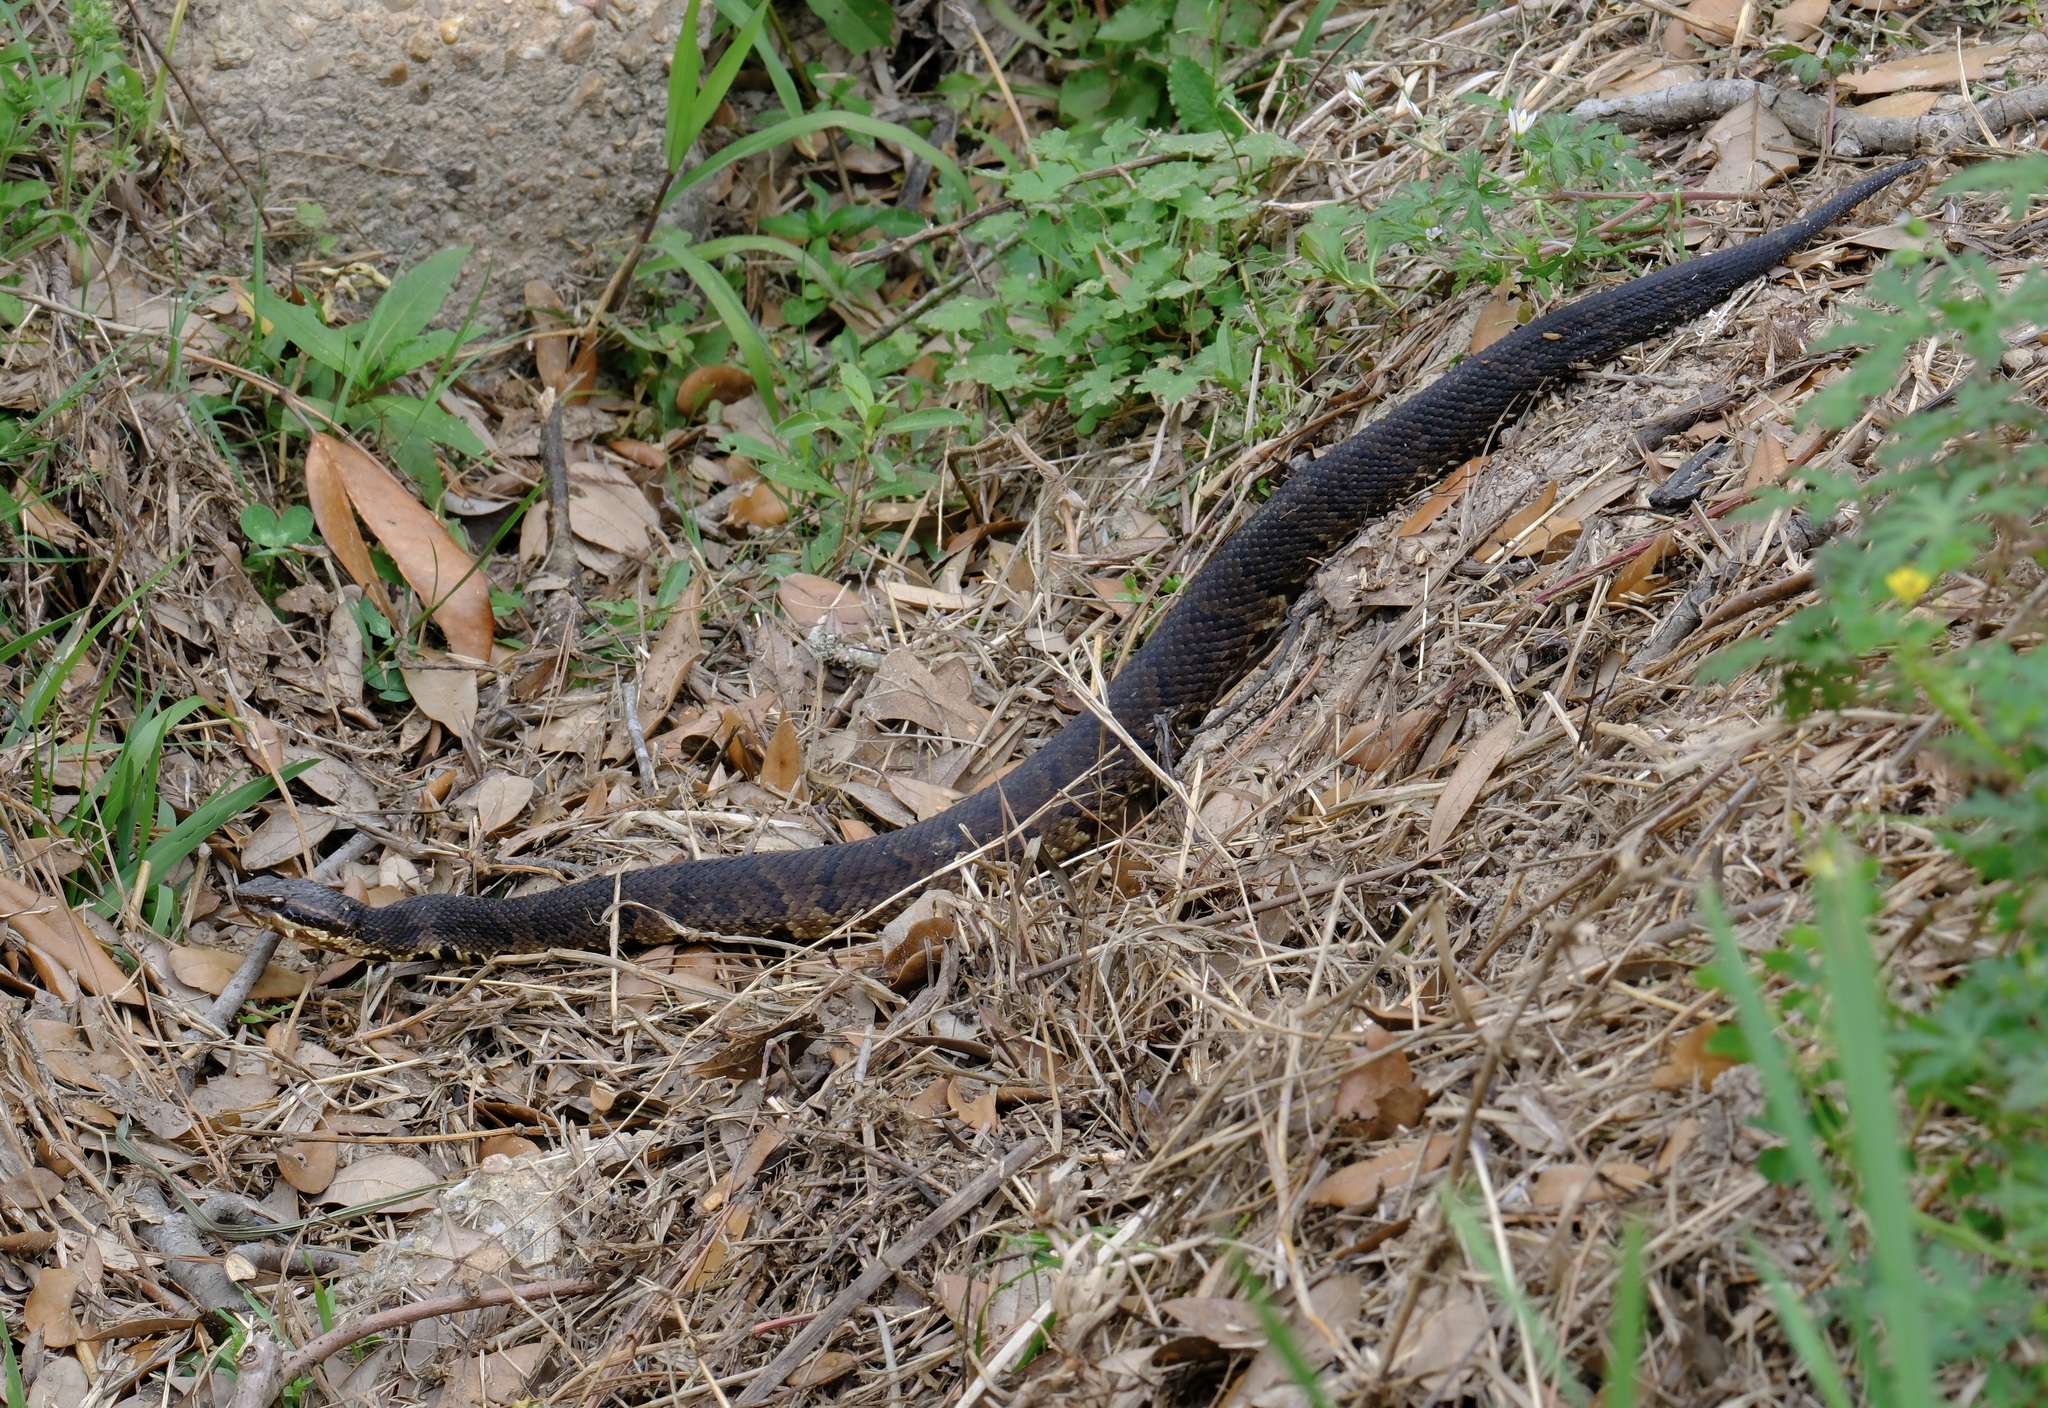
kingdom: Animalia
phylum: Chordata
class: Squamata
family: Viperidae
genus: Agkistrodon
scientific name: Agkistrodon piscivorus
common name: Cottonmouth
